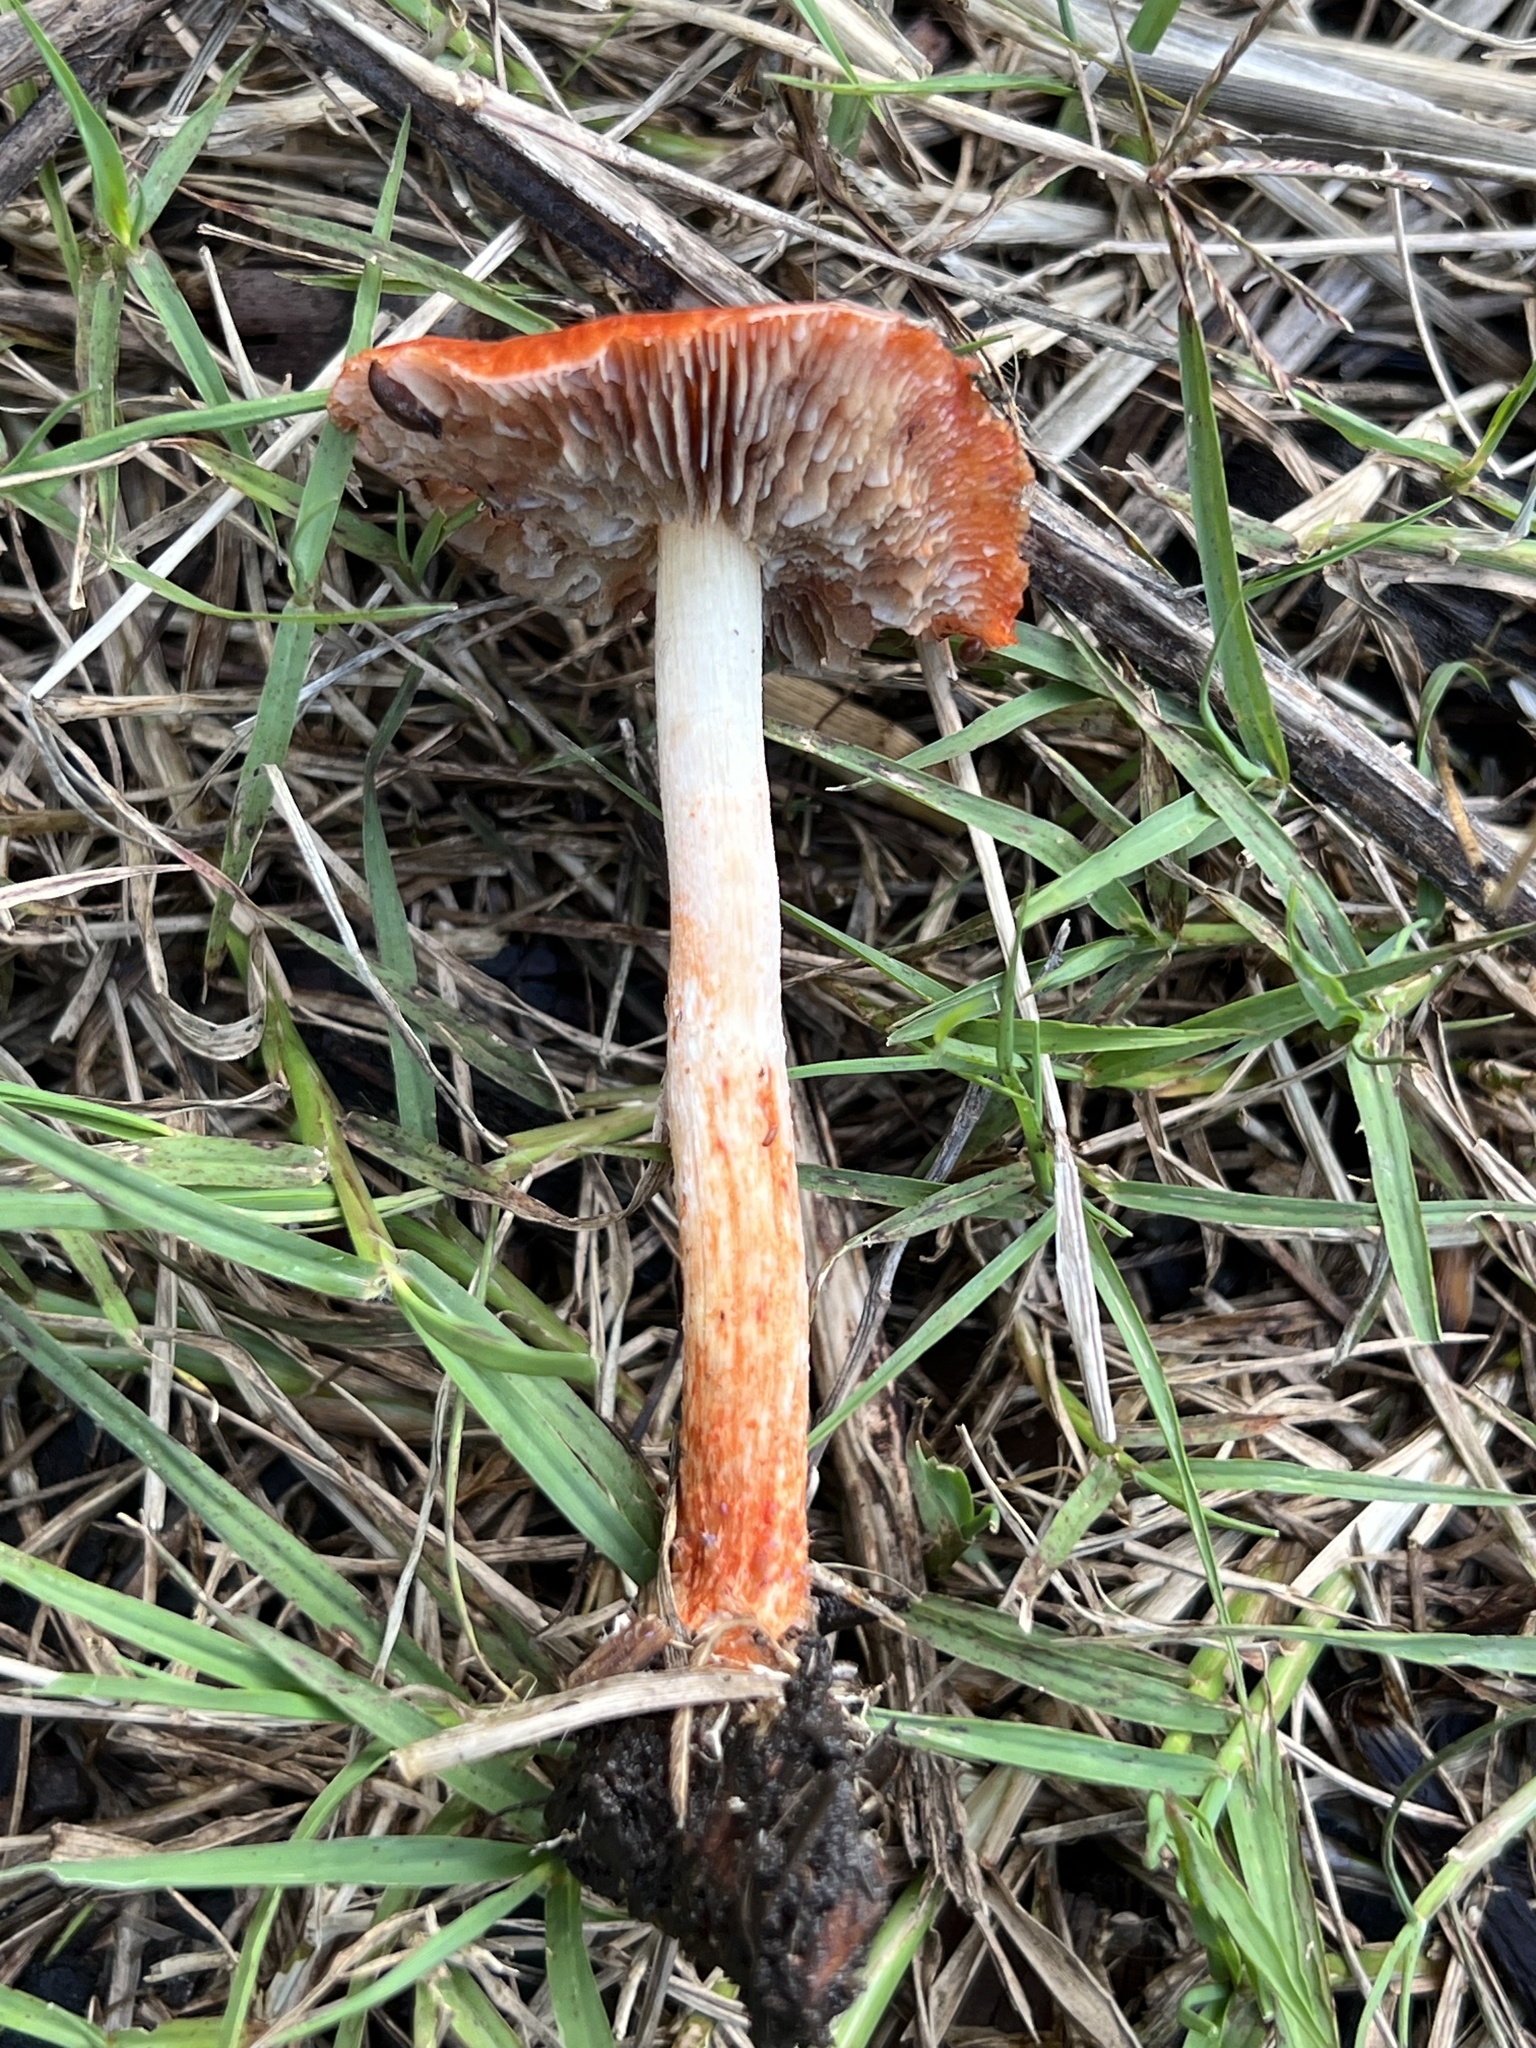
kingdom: Fungi
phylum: Basidiomycota
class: Agaricomycetes
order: Agaricales
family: Strophariaceae
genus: Leratiomyces
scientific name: Leratiomyces ceres
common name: Redlead roundhead
